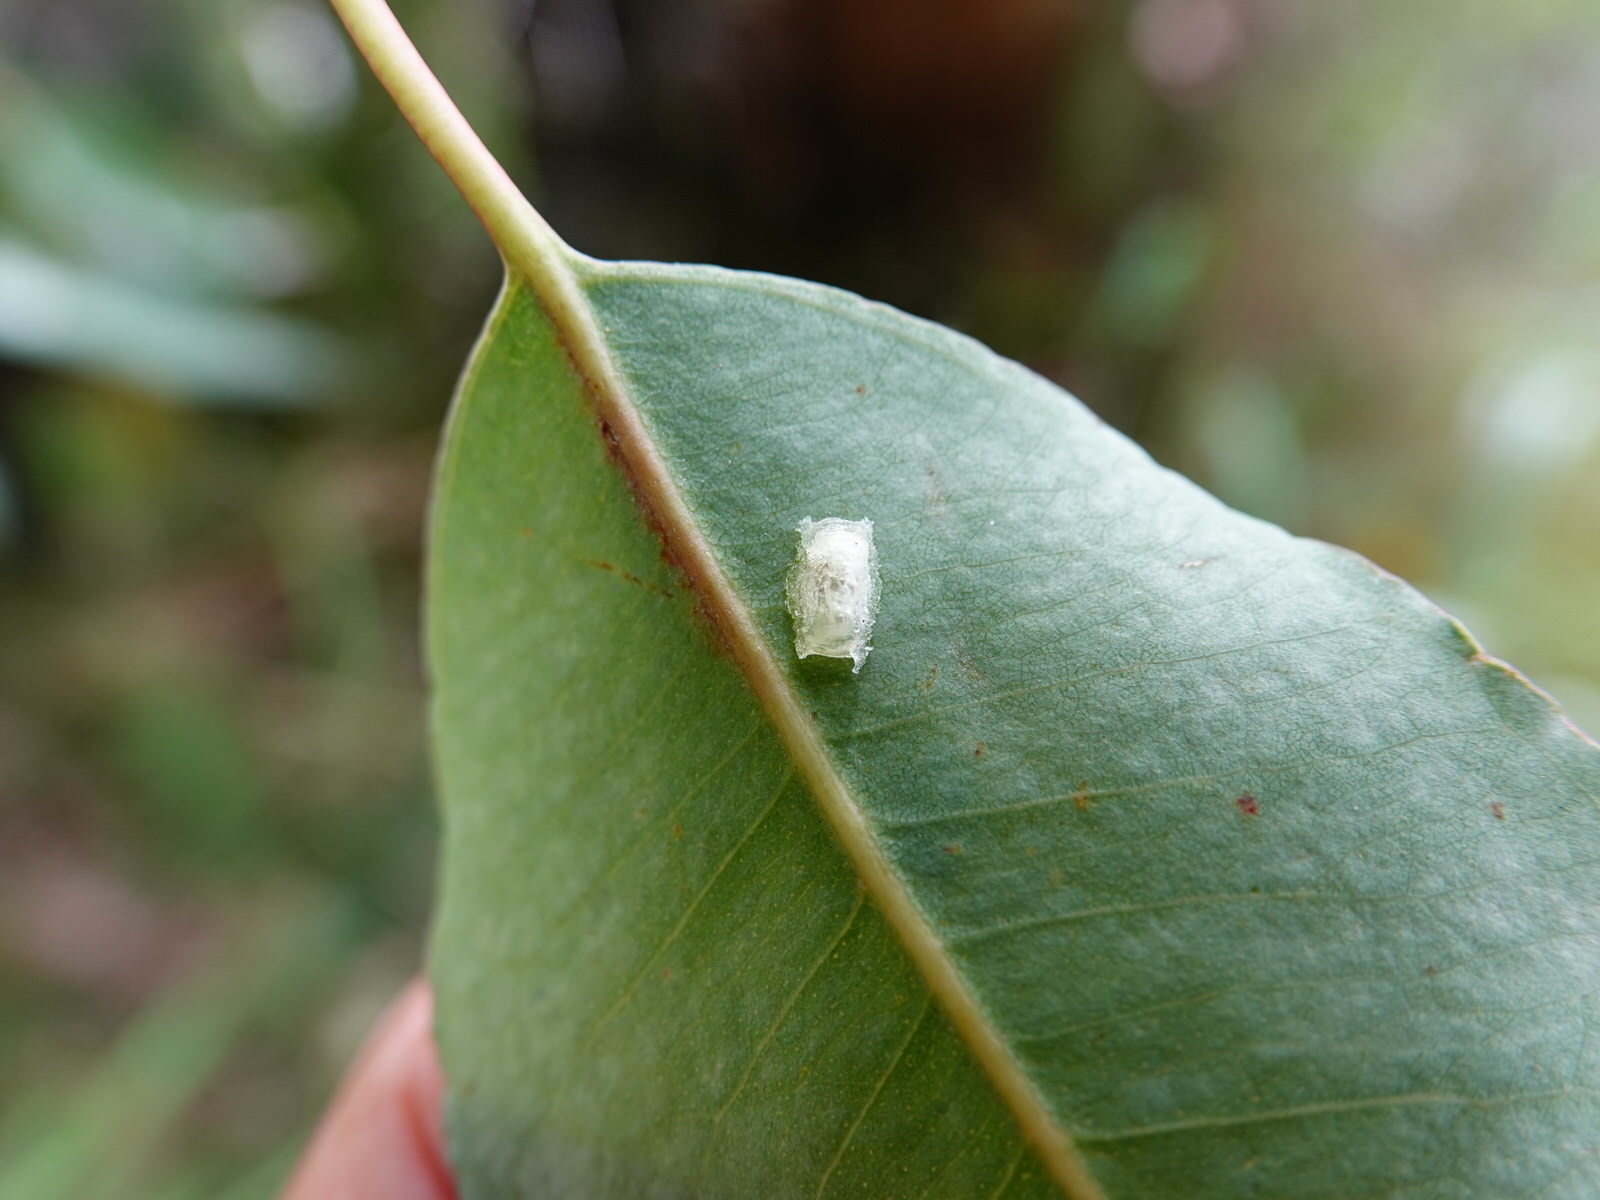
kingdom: Animalia
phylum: Arthropoda
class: Insecta
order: Hemiptera
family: Aphalaridae
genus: Glycaspis
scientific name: Glycaspis granulata
